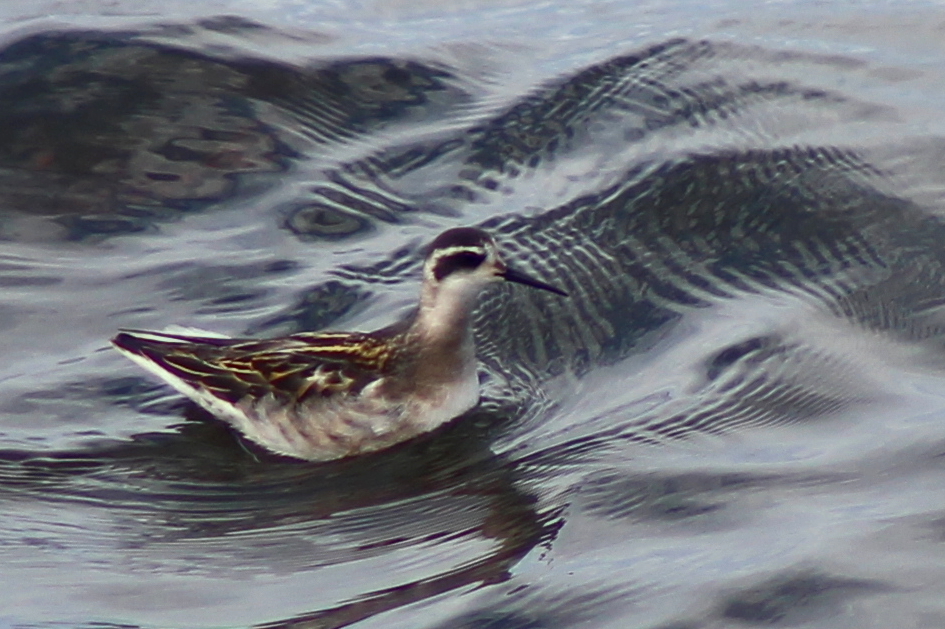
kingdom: Animalia
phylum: Chordata
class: Aves
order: Charadriiformes
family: Scolopacidae
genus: Phalaropus
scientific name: Phalaropus lobatus
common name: Red-necked phalarope
